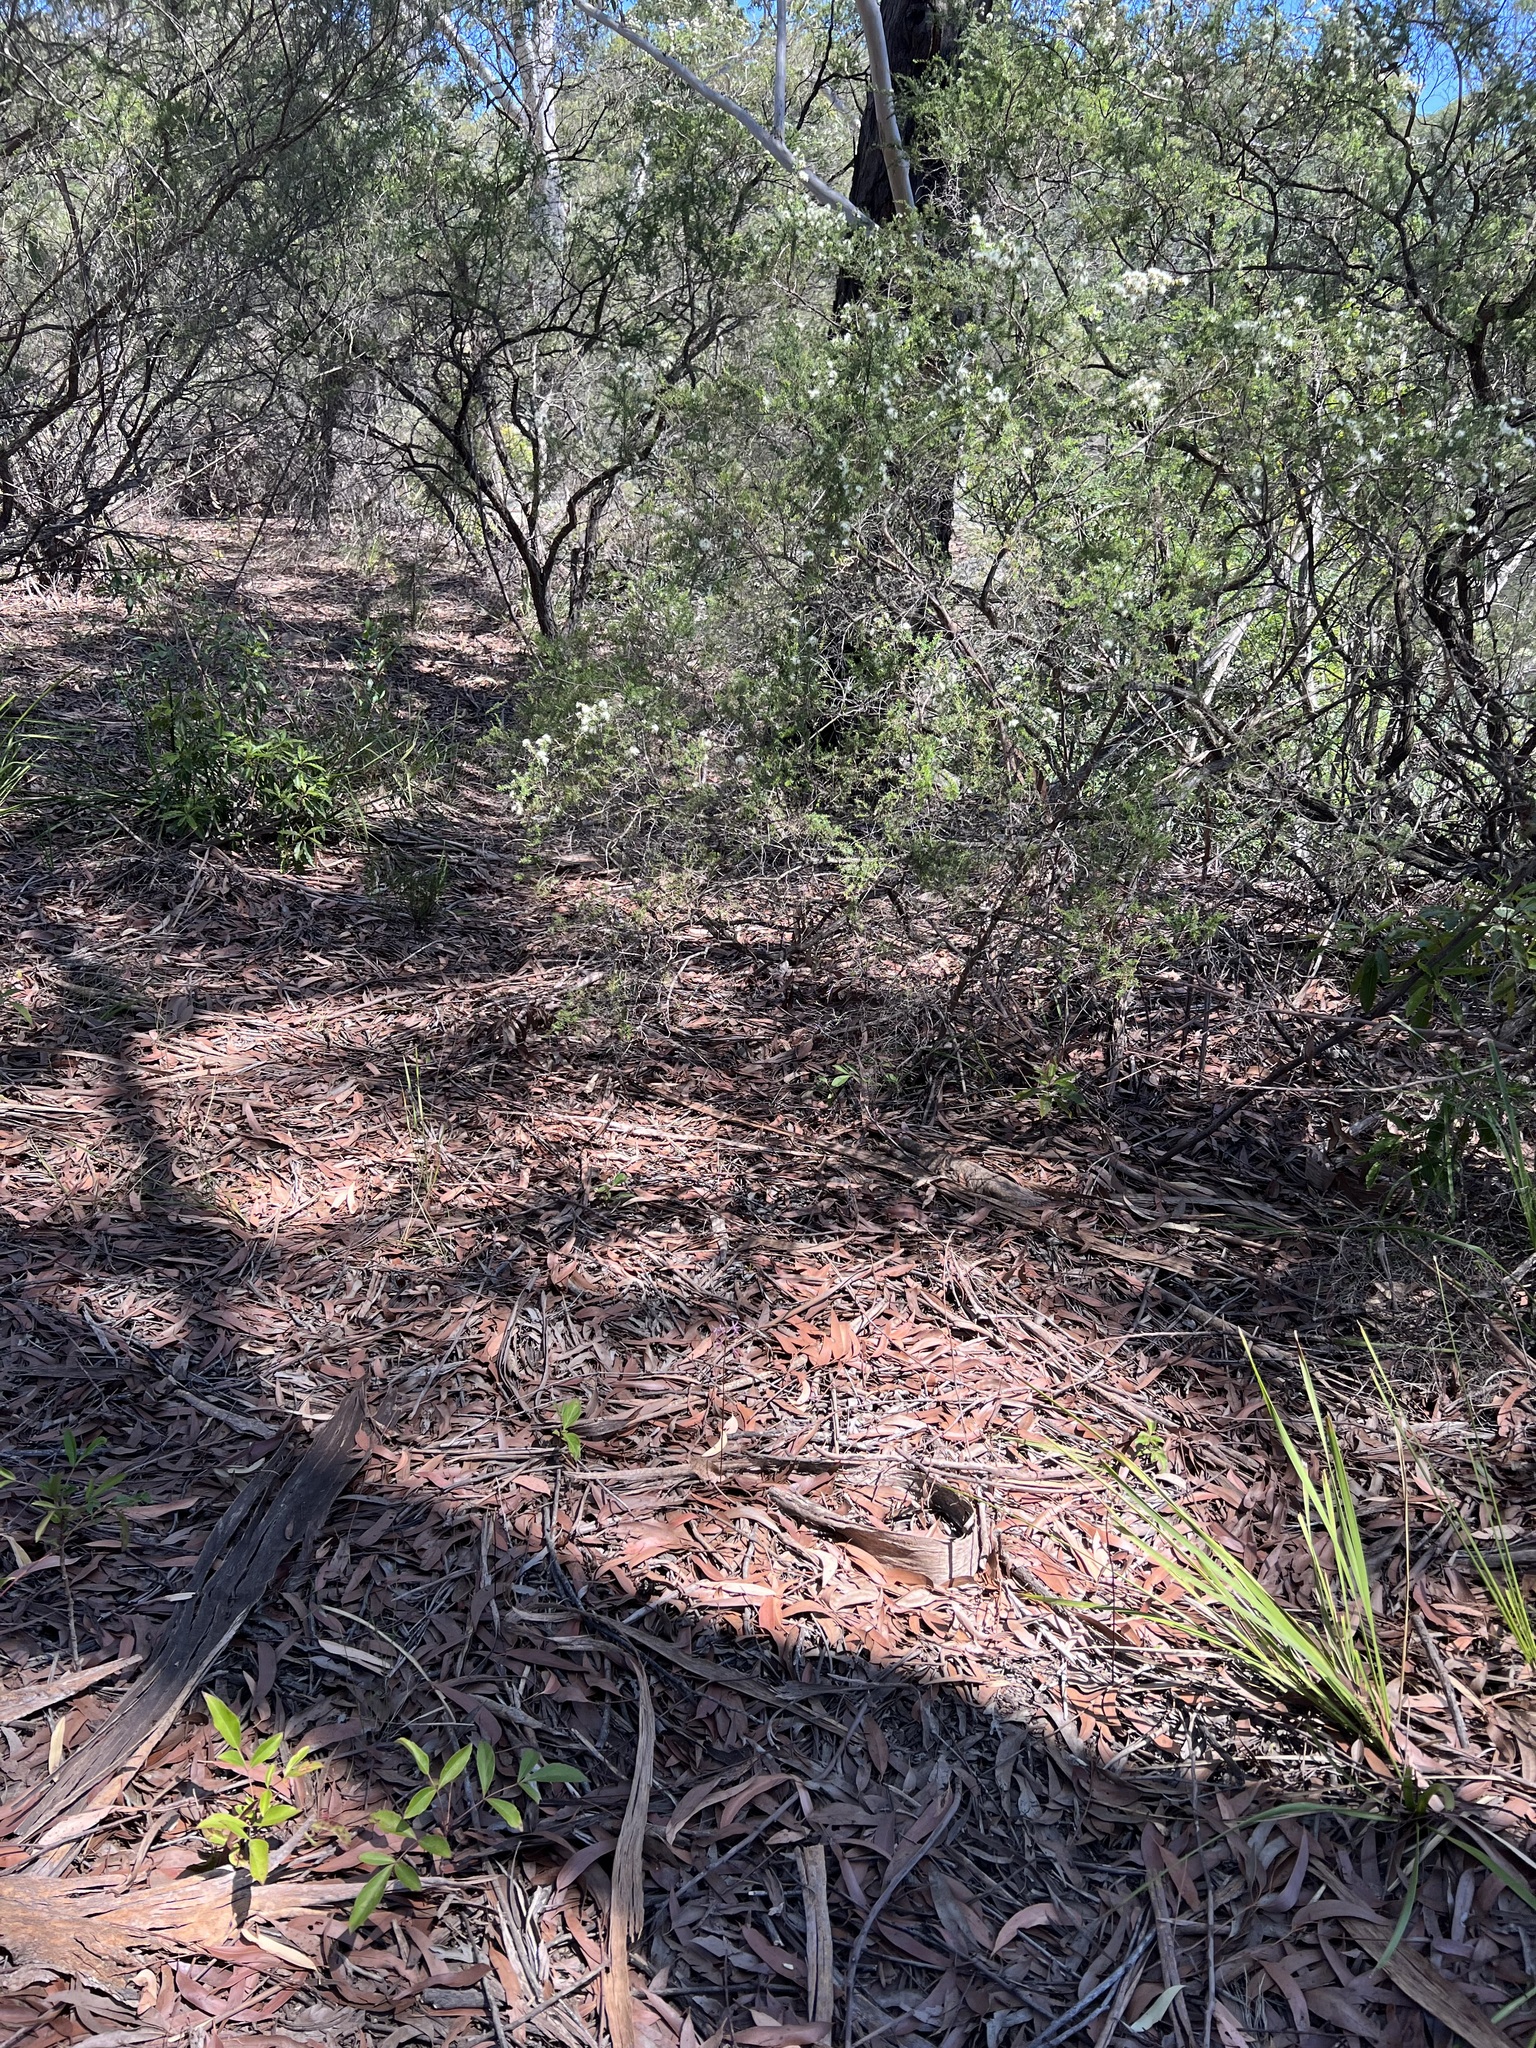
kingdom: Plantae
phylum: Tracheophyta
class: Liliopsida
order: Asparagales
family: Orchidaceae
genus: Dipodium
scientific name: Dipodium variegatum
